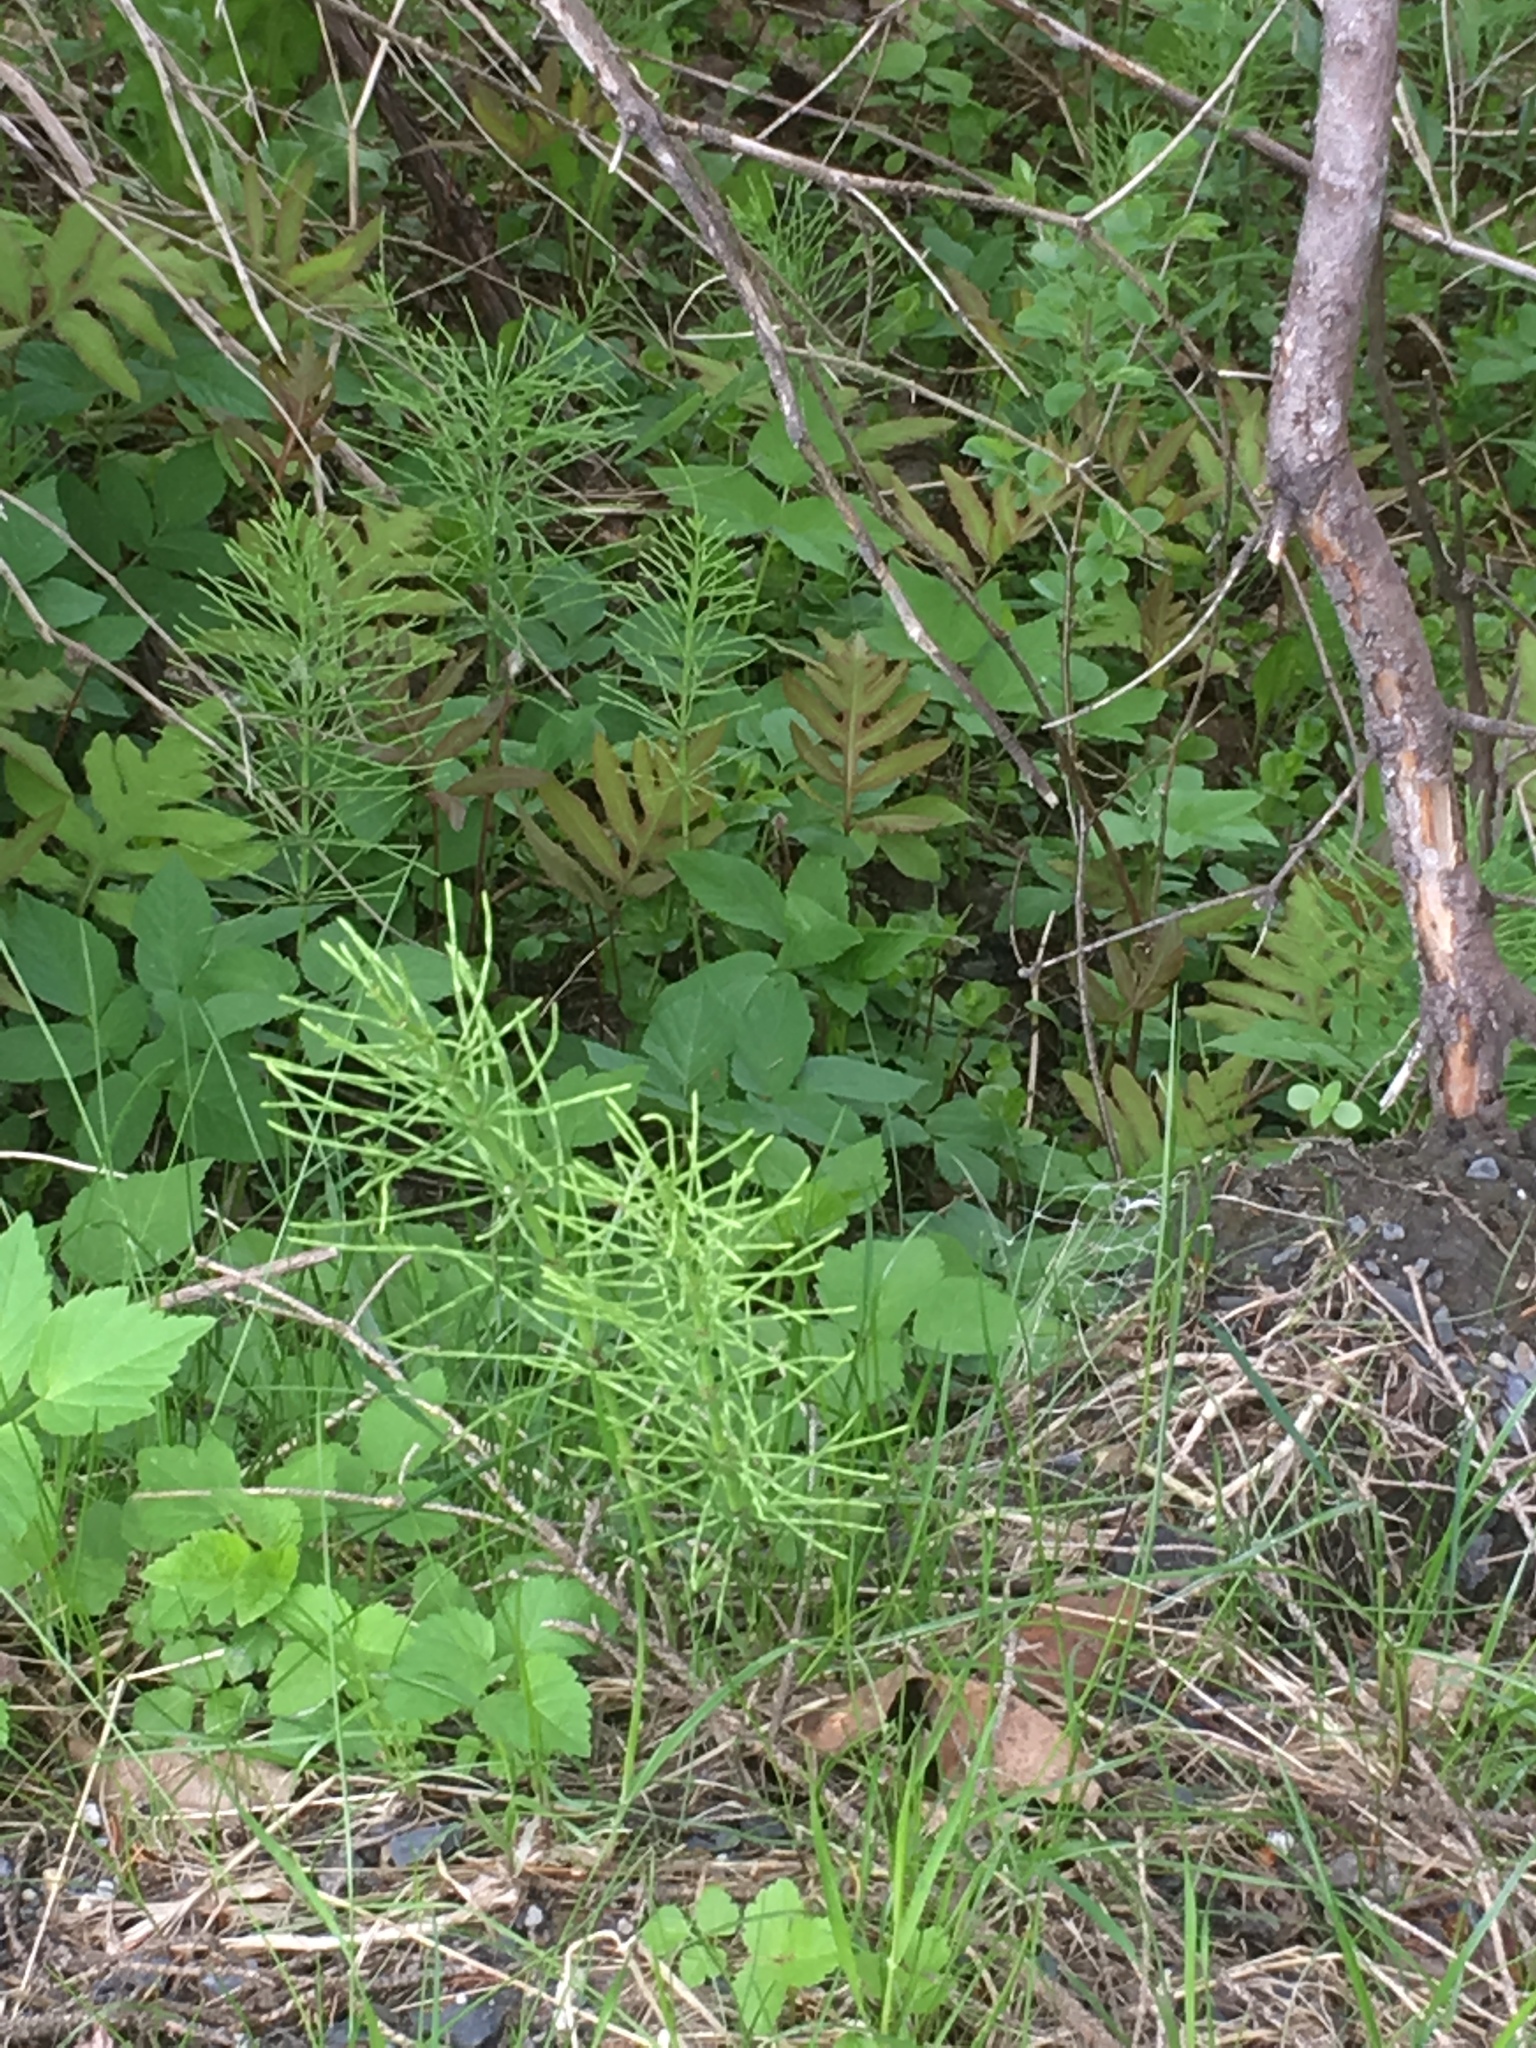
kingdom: Plantae
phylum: Tracheophyta
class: Polypodiopsida
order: Polypodiales
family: Onocleaceae
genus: Onoclea
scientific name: Onoclea sensibilis
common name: Sensitive fern
